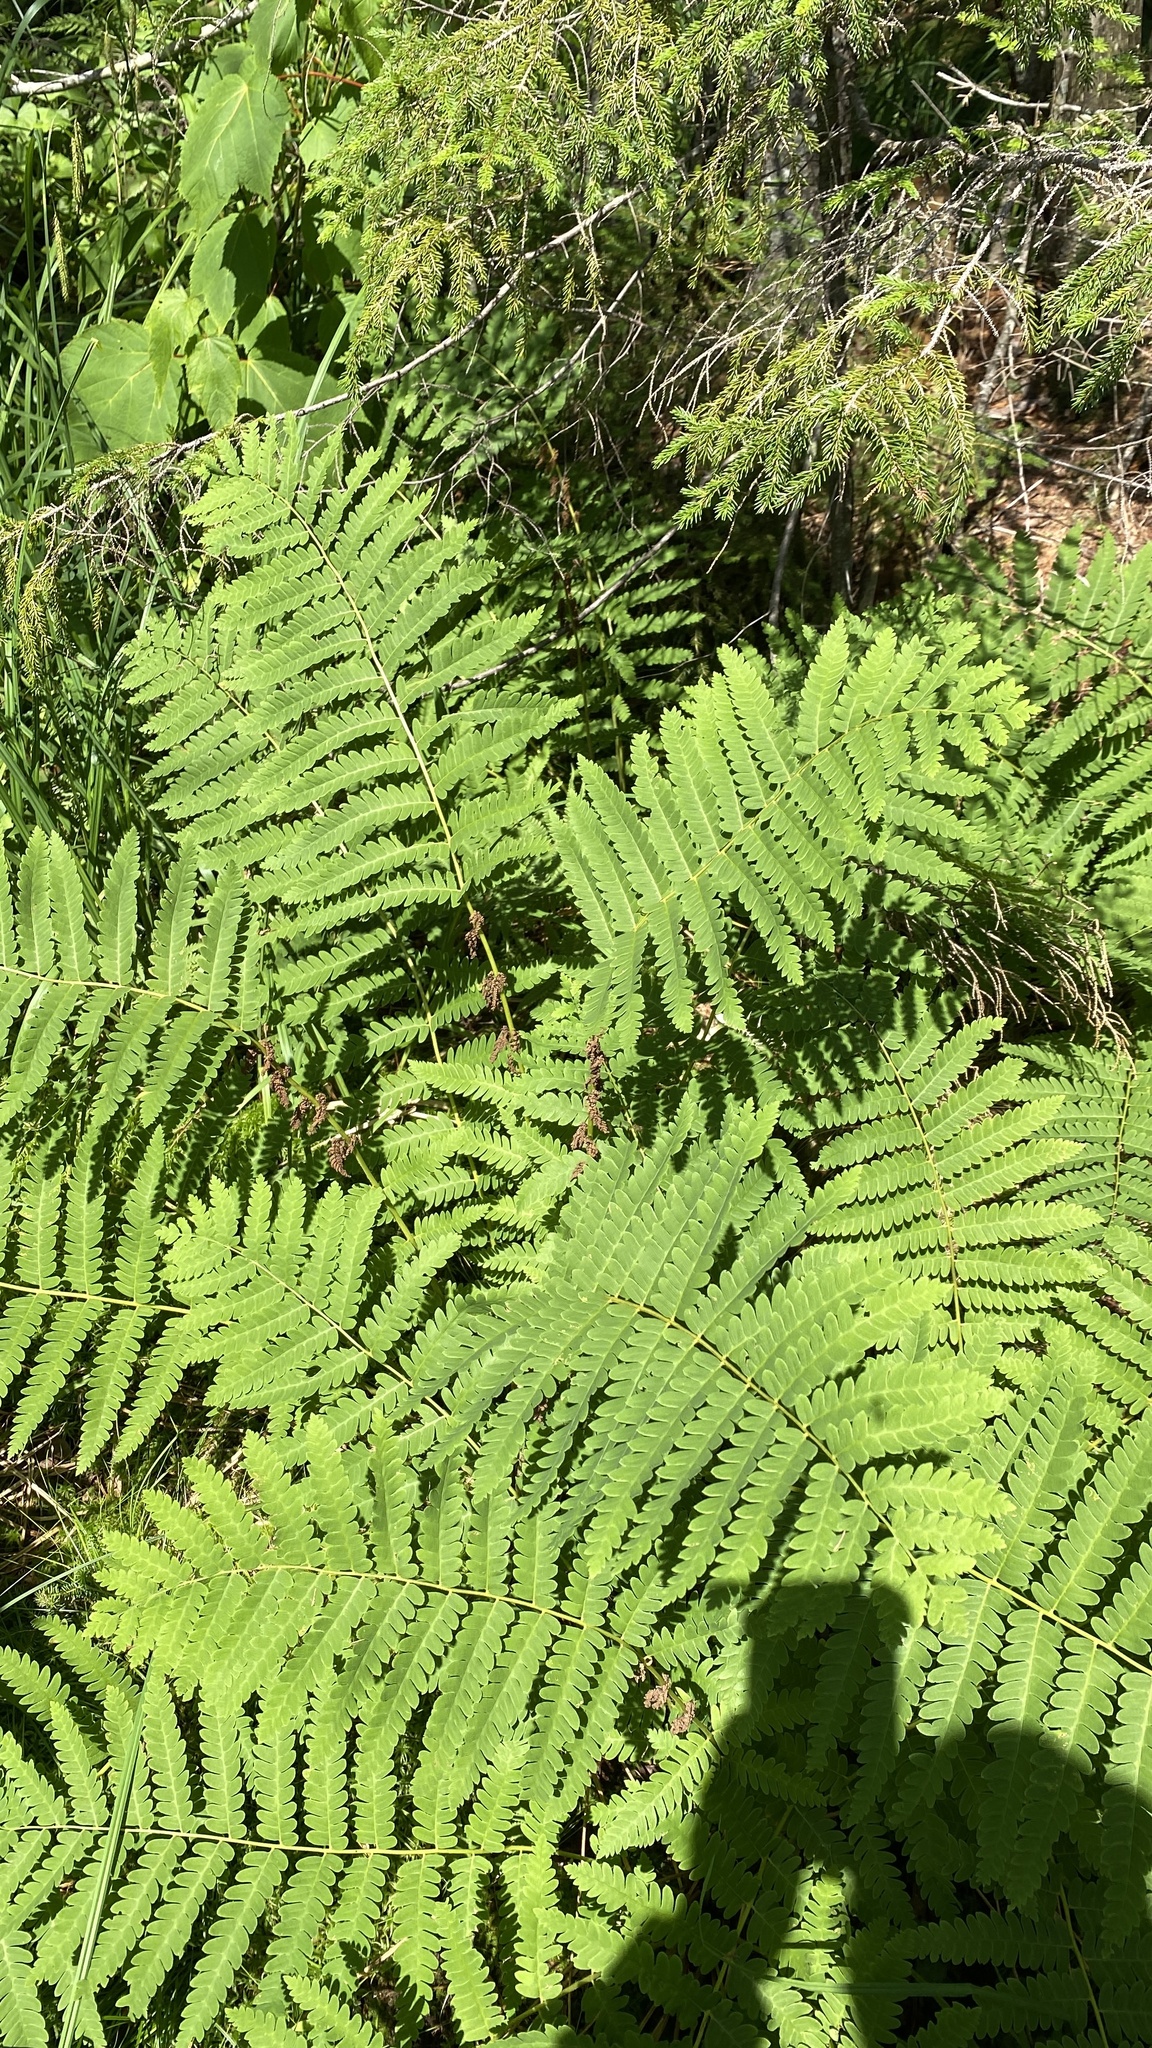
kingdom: Plantae
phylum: Tracheophyta
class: Polypodiopsida
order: Osmundales
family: Osmundaceae
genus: Claytosmunda
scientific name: Claytosmunda claytoniana
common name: Clayton's fern
